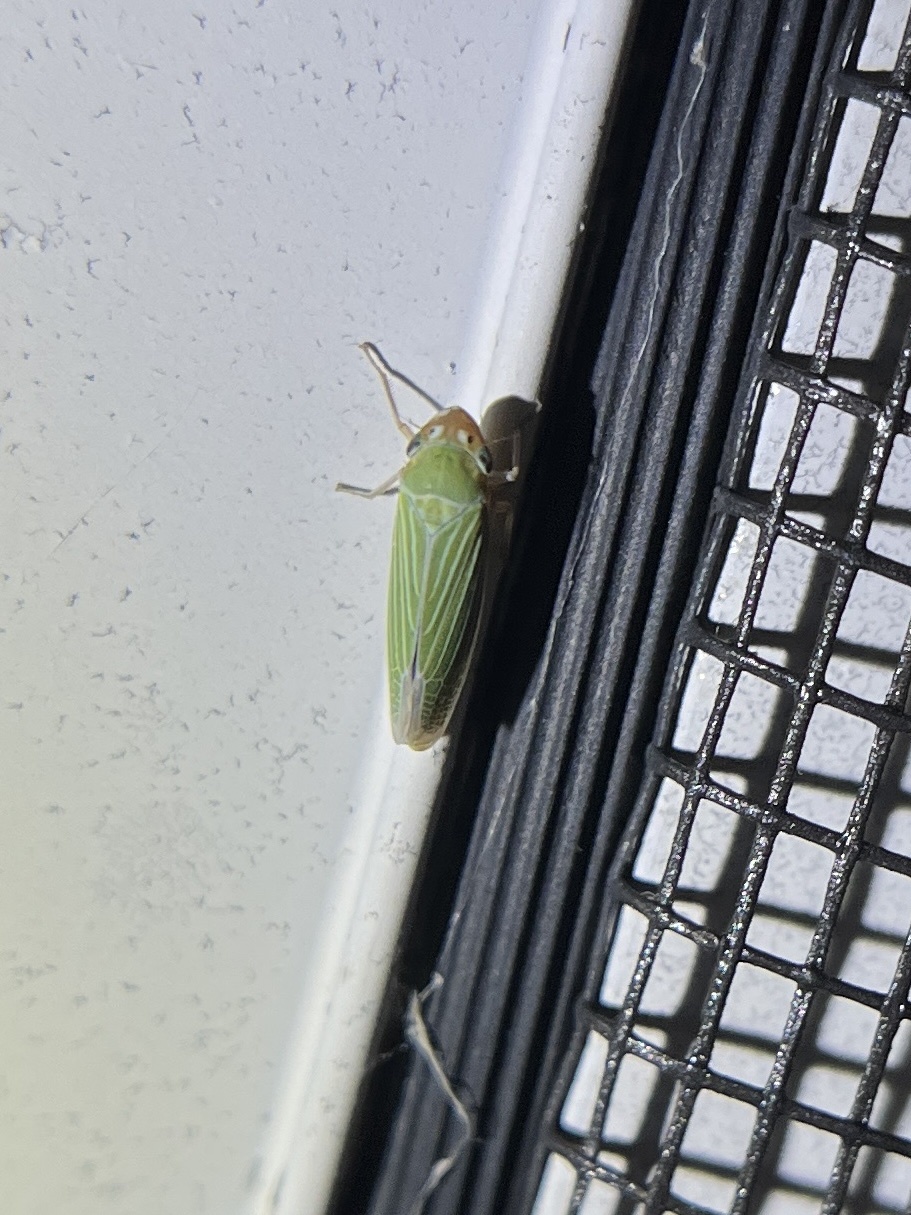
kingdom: Animalia
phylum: Arthropoda
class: Insecta
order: Hemiptera
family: Cicadellidae
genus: Xyphon
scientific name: Xyphon flaviceps
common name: Yellowheaded leafhopper
